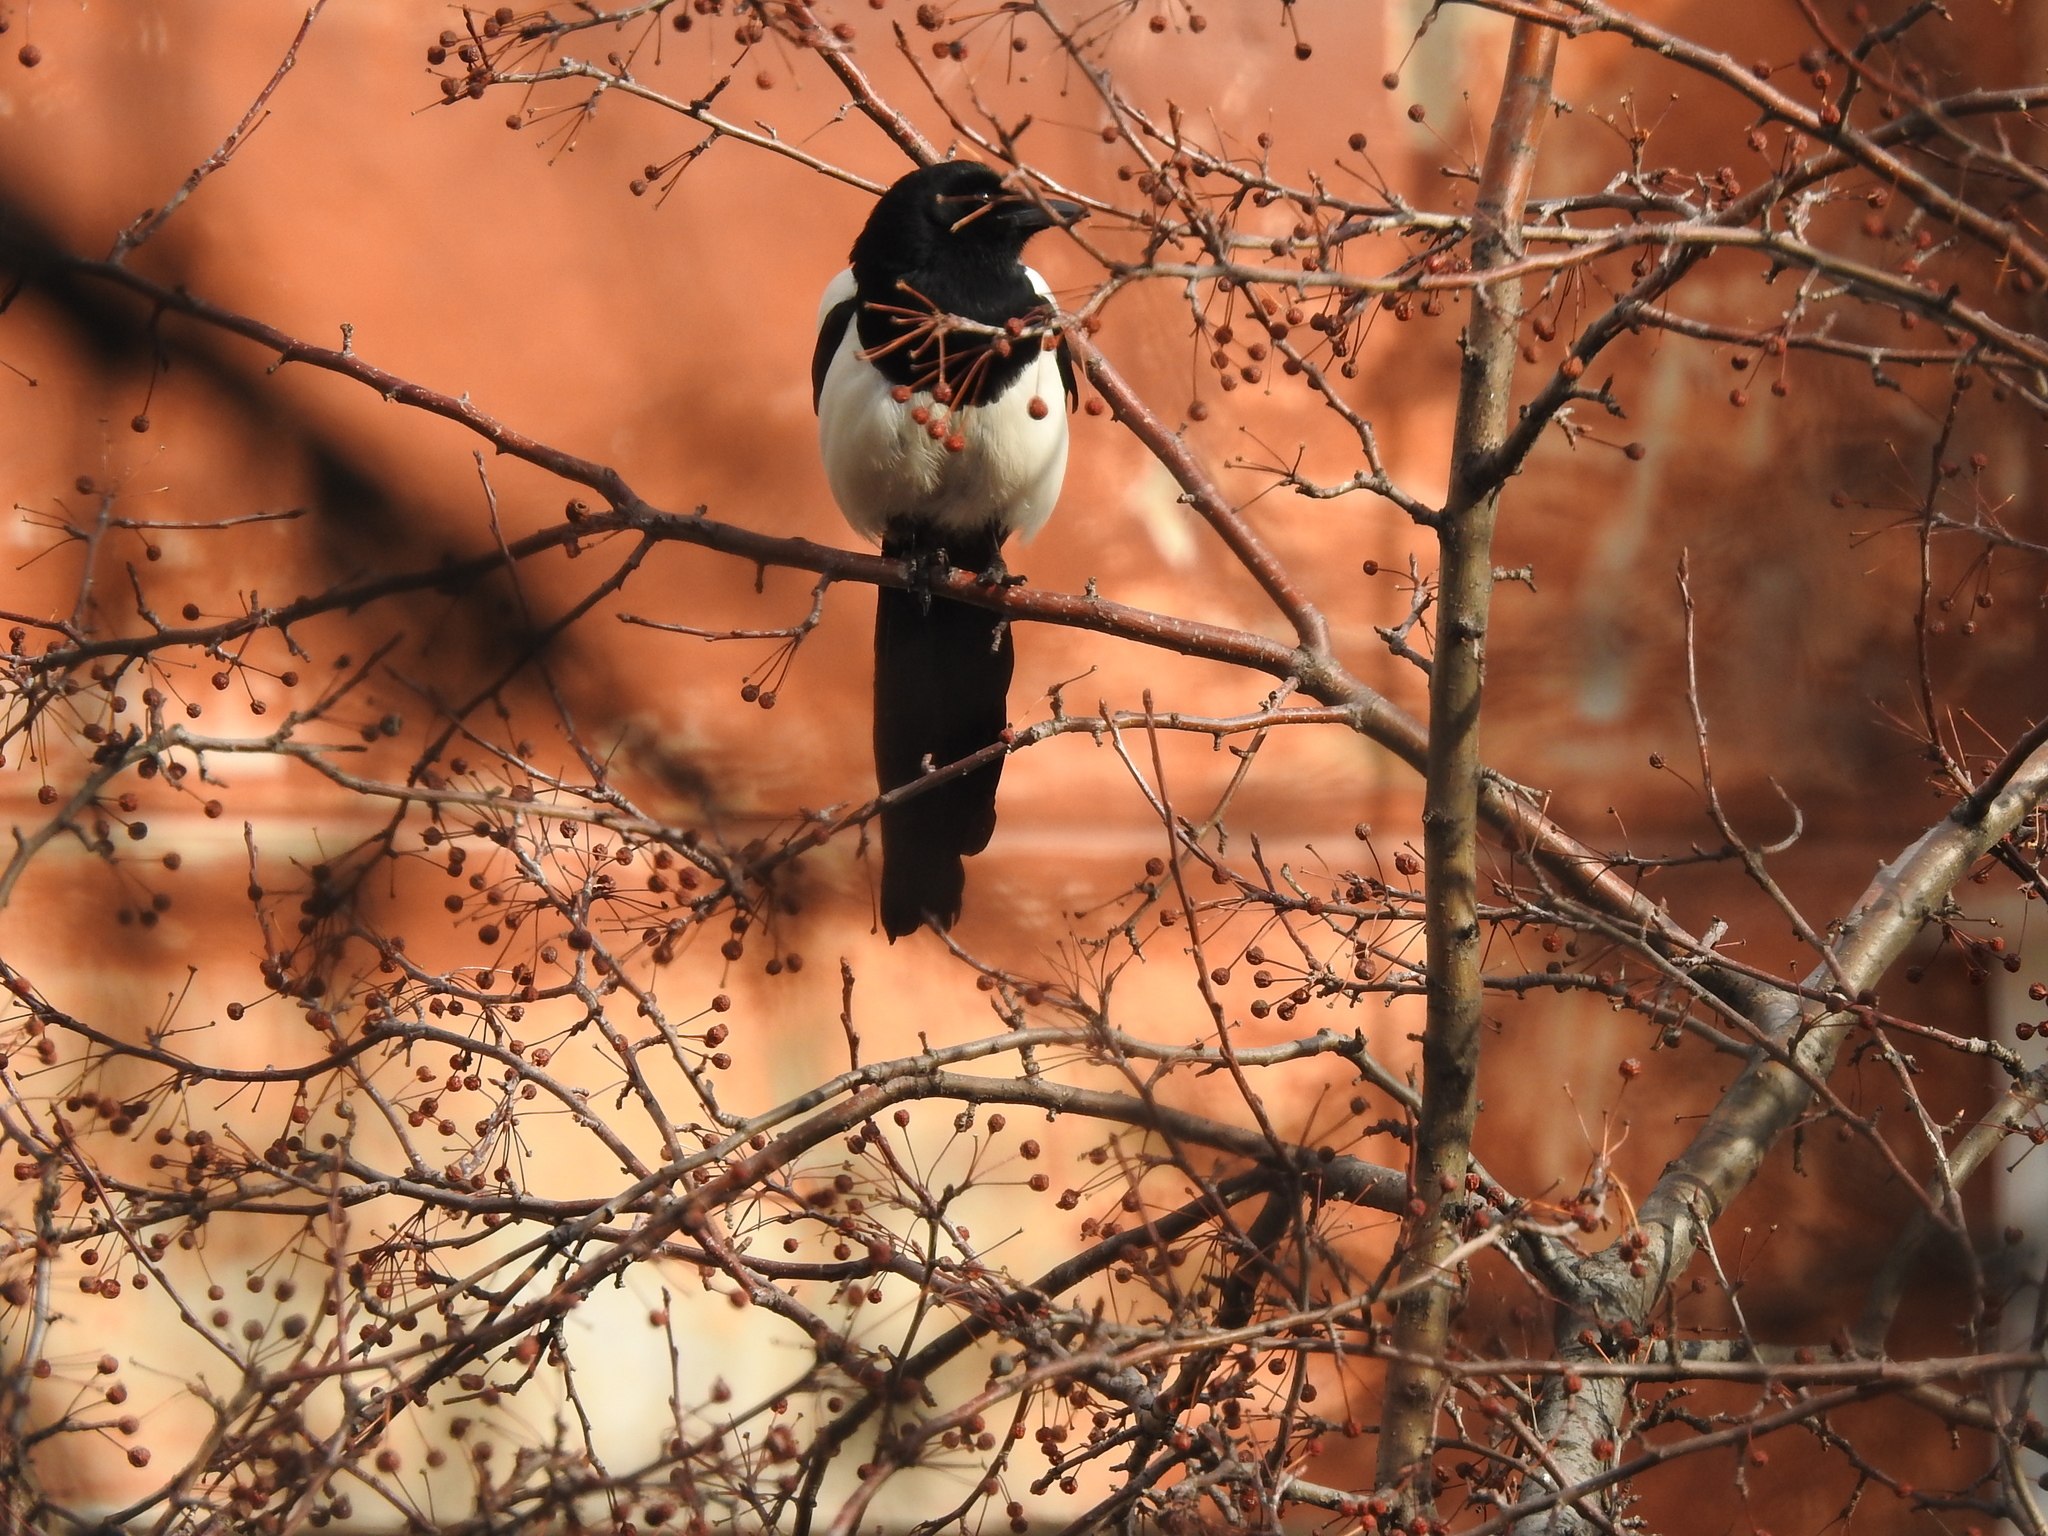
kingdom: Animalia
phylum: Chordata
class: Aves
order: Passeriformes
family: Corvidae
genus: Pica
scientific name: Pica pica
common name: Eurasian magpie
